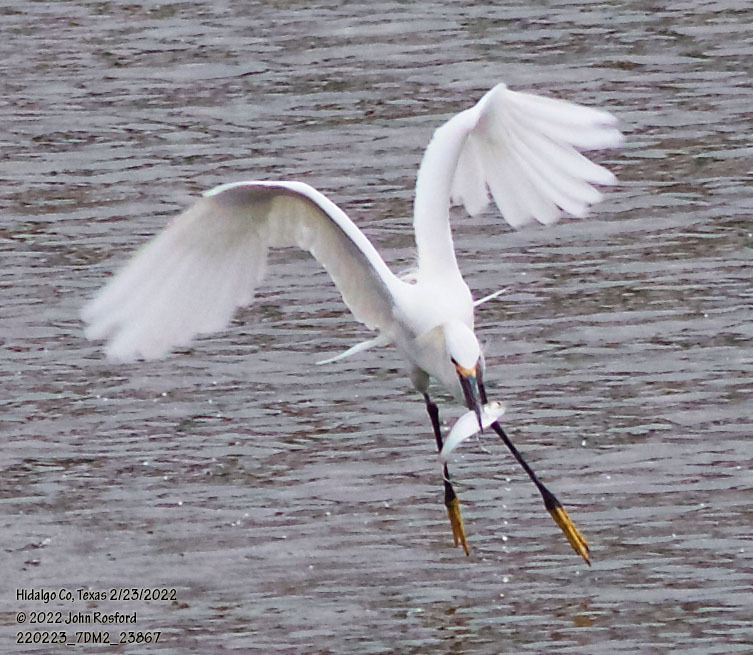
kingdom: Animalia
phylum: Chordata
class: Aves
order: Pelecaniformes
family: Ardeidae
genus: Egretta
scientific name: Egretta thula
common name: Snowy egret
